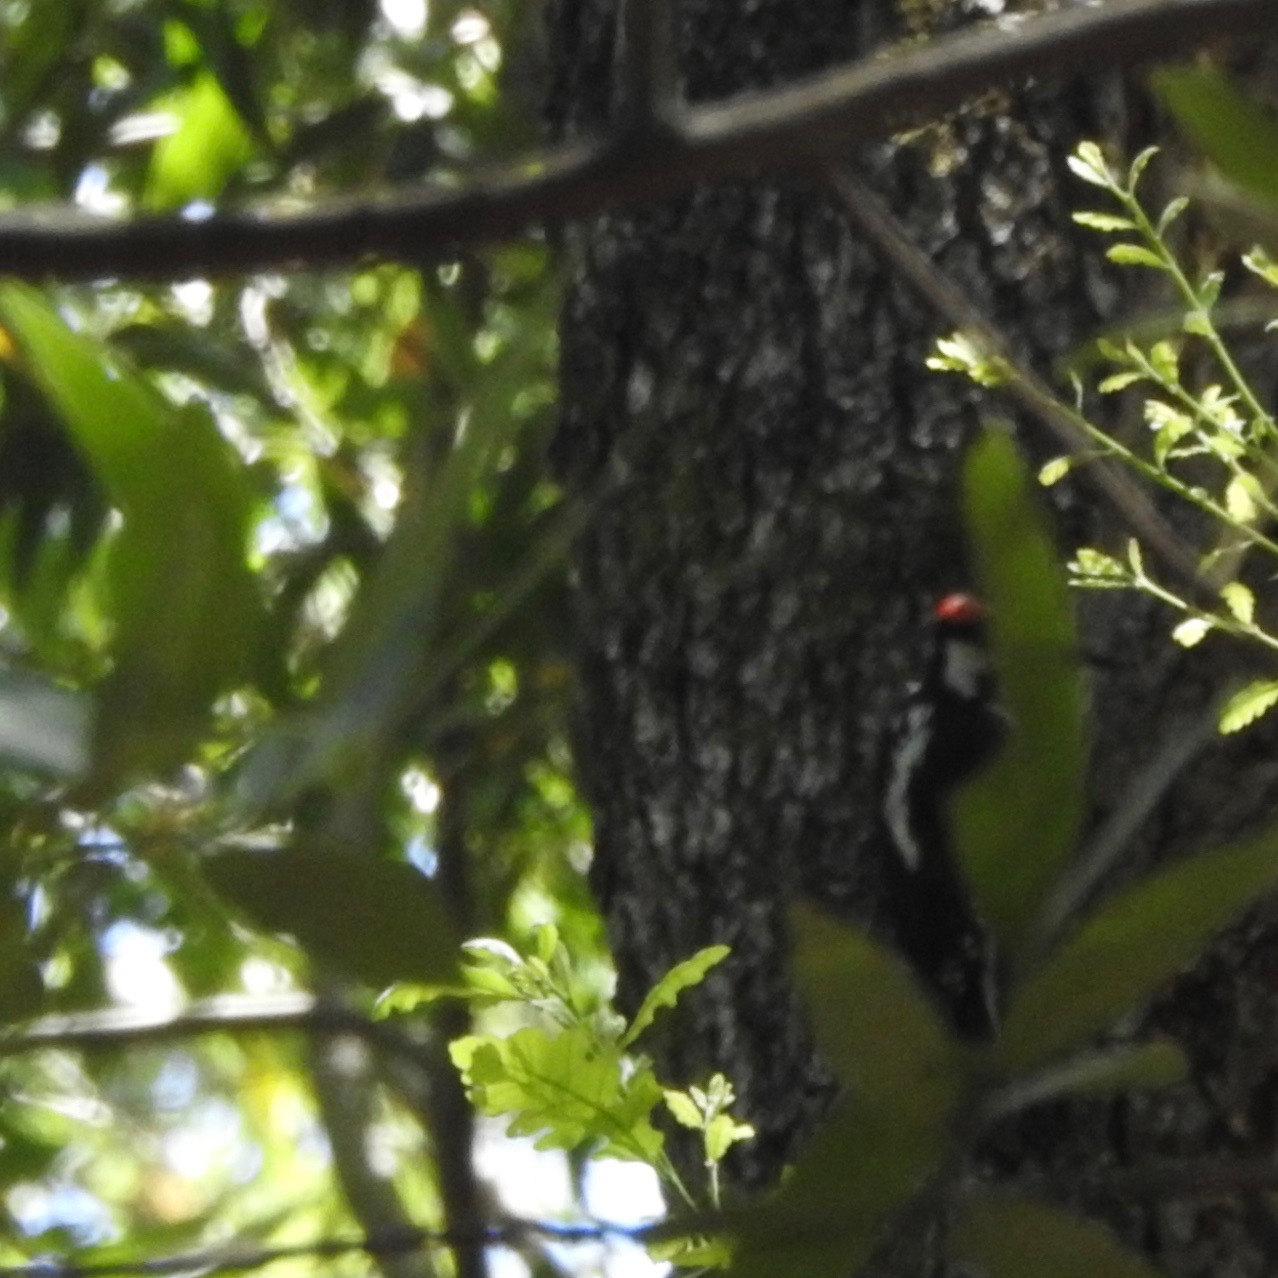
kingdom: Animalia
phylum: Chordata
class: Aves
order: Piciformes
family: Picidae
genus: Dryobates
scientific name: Dryobates
